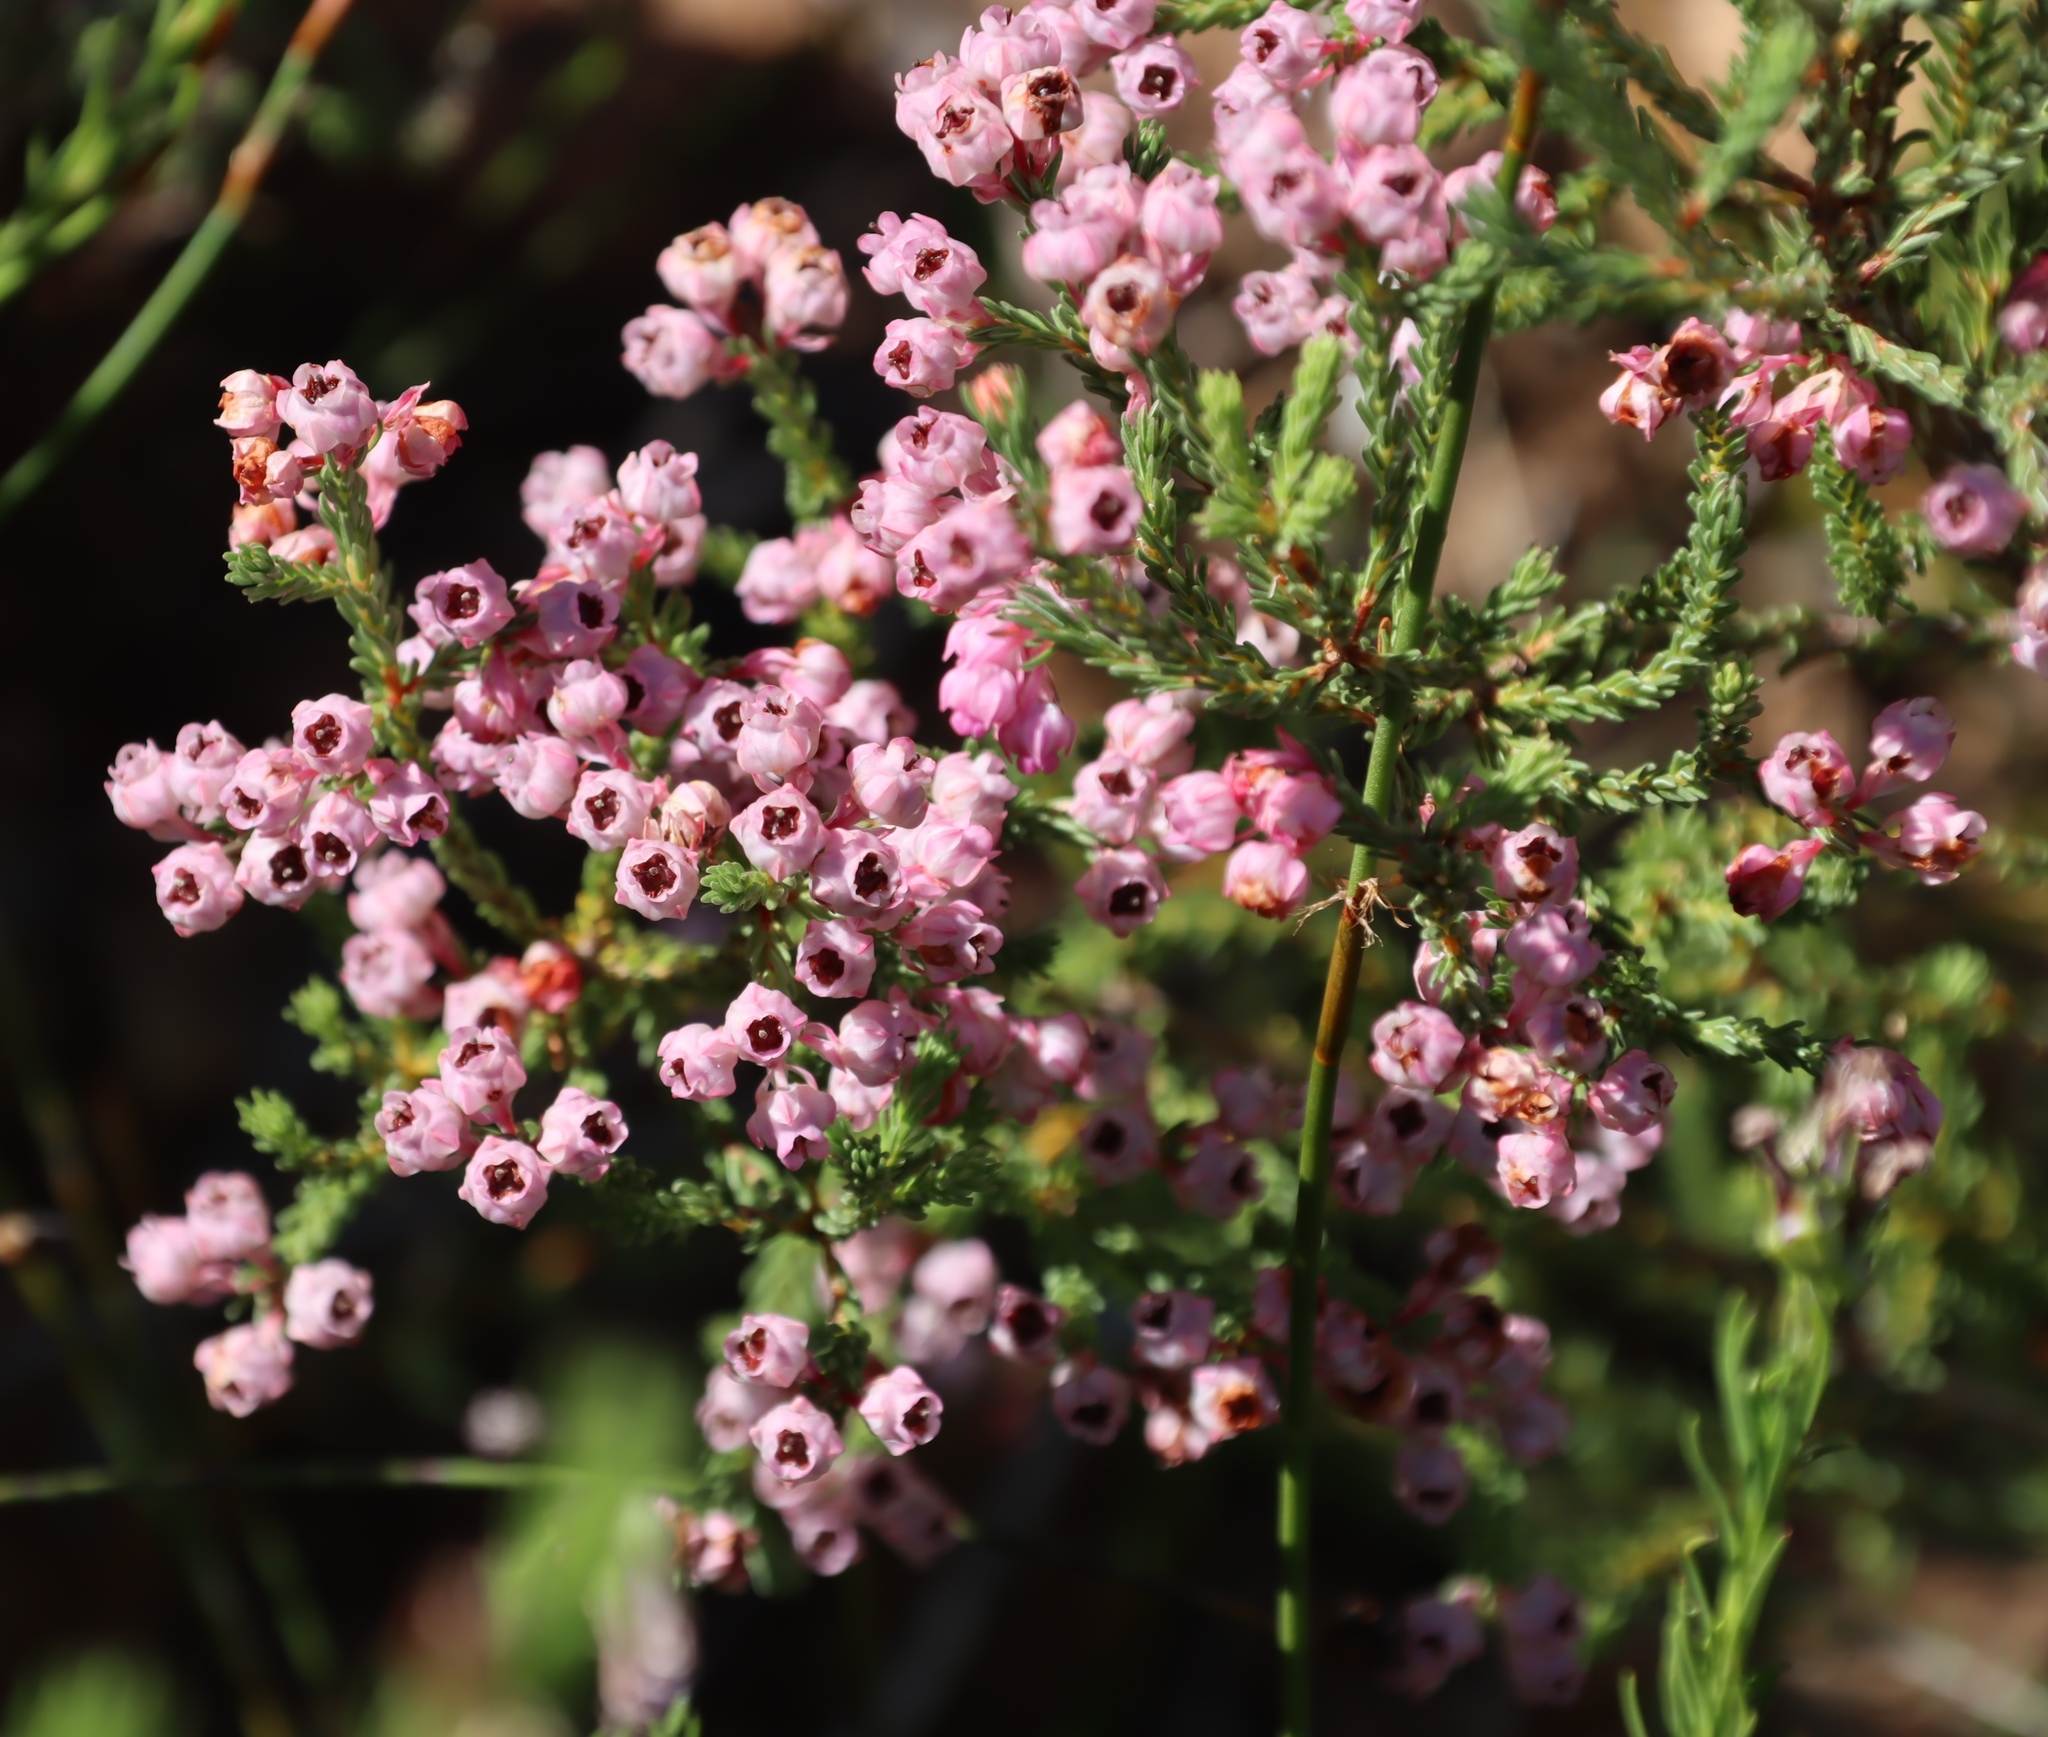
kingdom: Plantae
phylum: Tracheophyta
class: Magnoliopsida
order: Ericales
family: Ericaceae
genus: Erica
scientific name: Erica baccans
